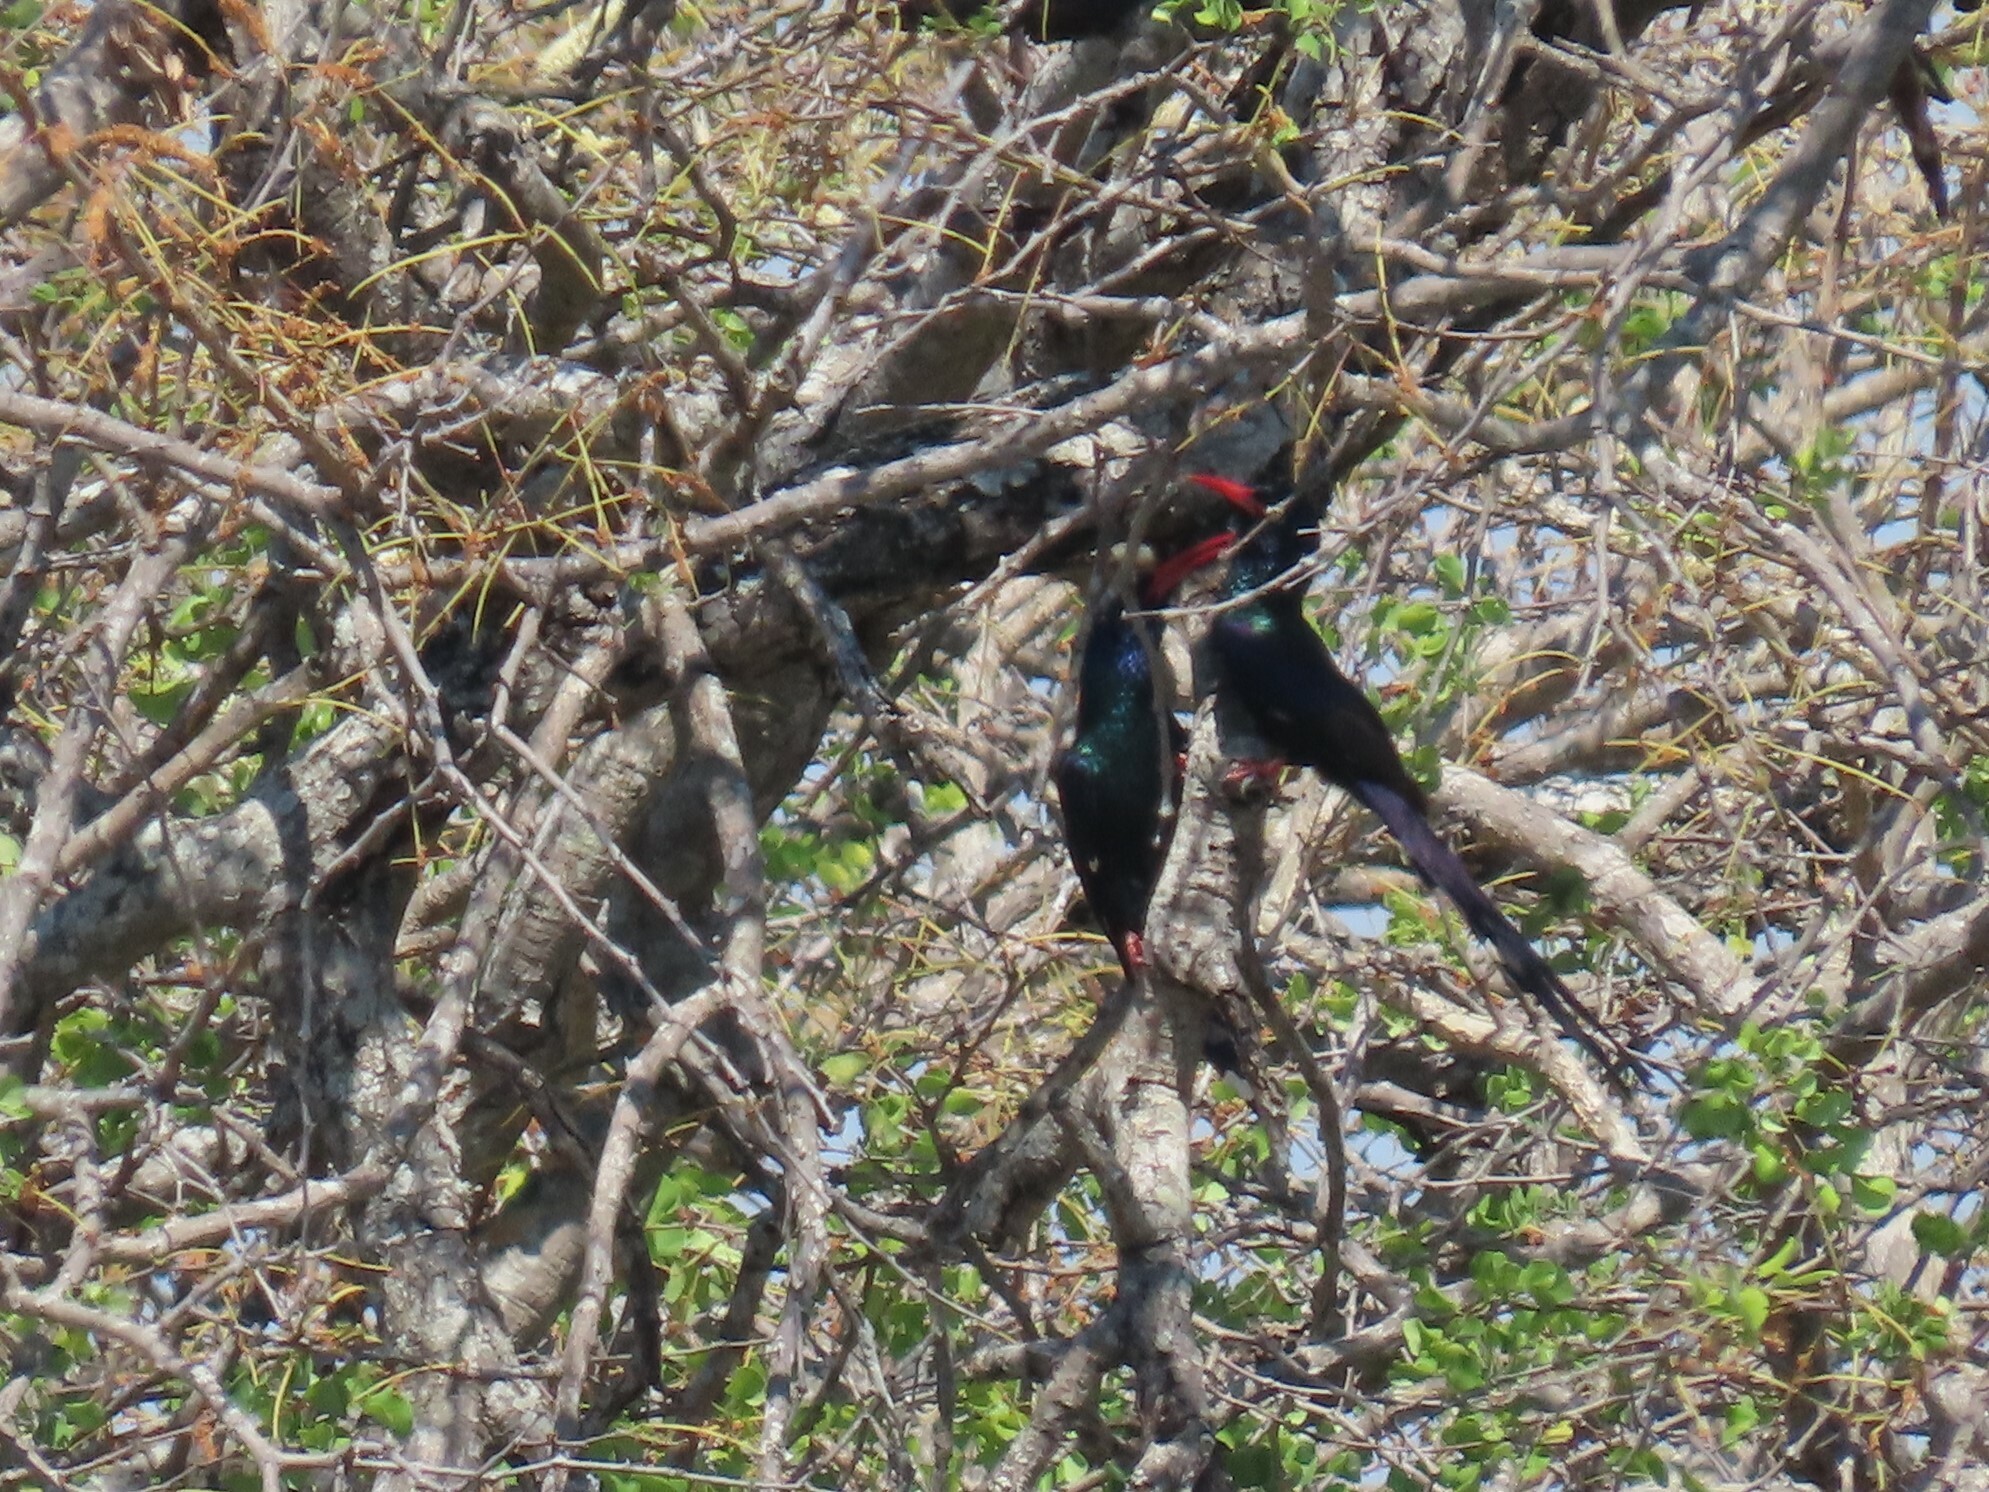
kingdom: Animalia
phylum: Chordata
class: Aves
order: Bucerotiformes
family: Phoeniculidae
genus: Phoeniculus
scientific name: Phoeniculus purpureus
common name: Green woodhoopoe
